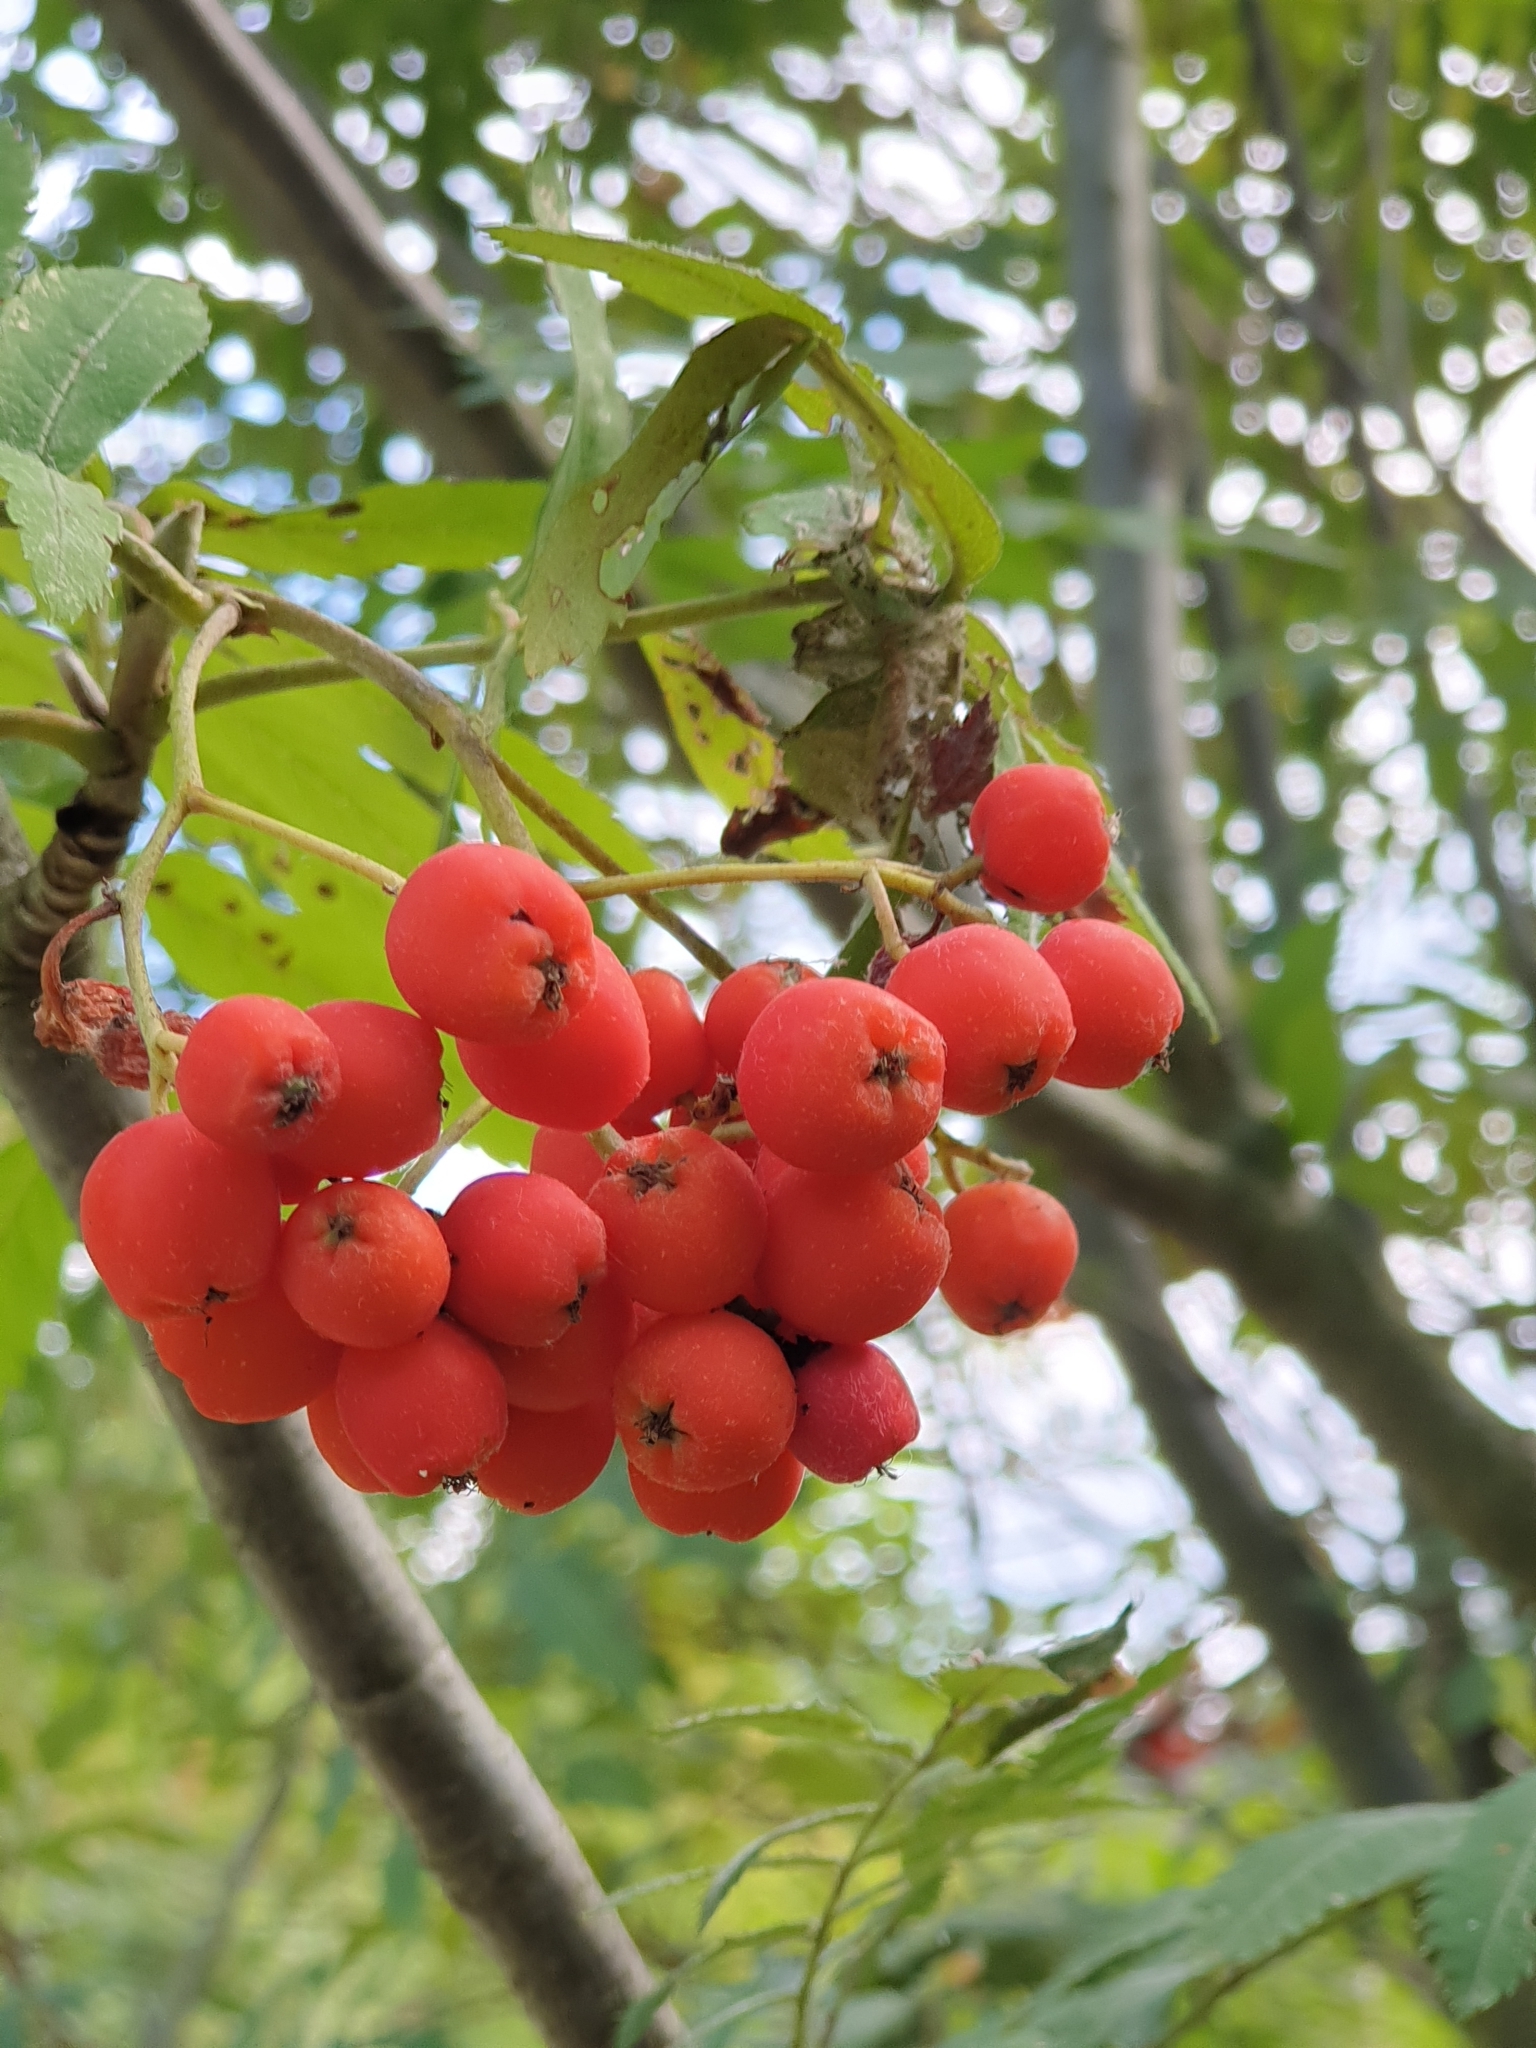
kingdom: Plantae
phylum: Tracheophyta
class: Magnoliopsida
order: Rosales
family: Rosaceae
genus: Sorbus
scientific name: Sorbus aucuparia
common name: Rowan
